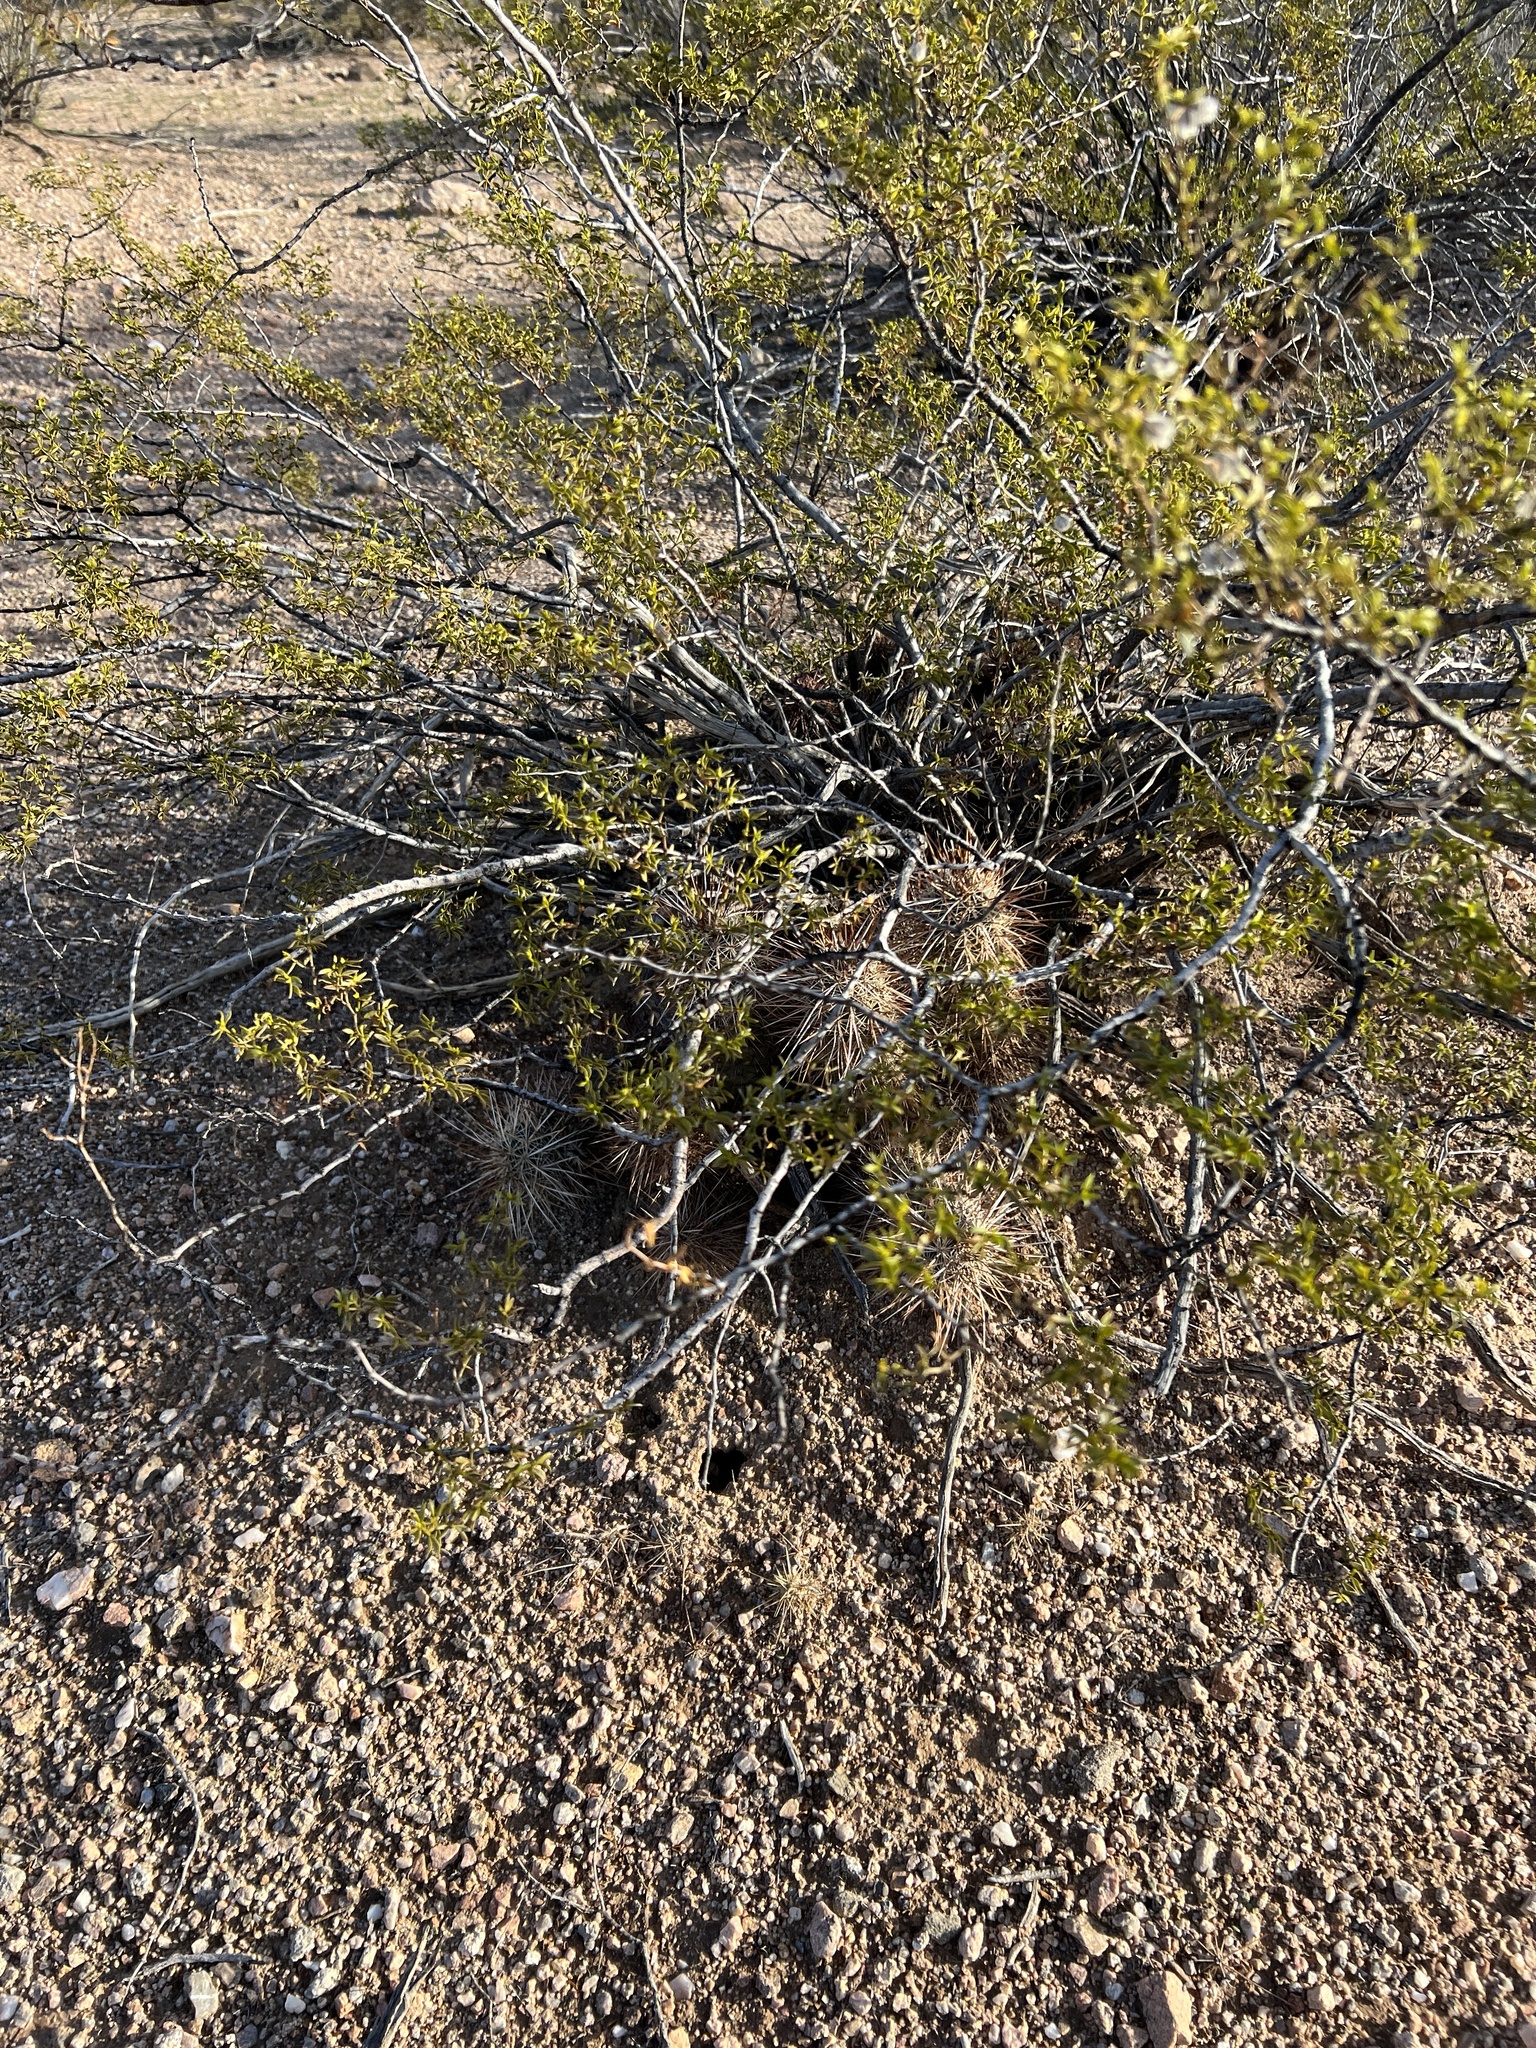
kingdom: Plantae
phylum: Tracheophyta
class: Magnoliopsida
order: Zygophyllales
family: Zygophyllaceae
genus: Larrea
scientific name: Larrea tridentata
